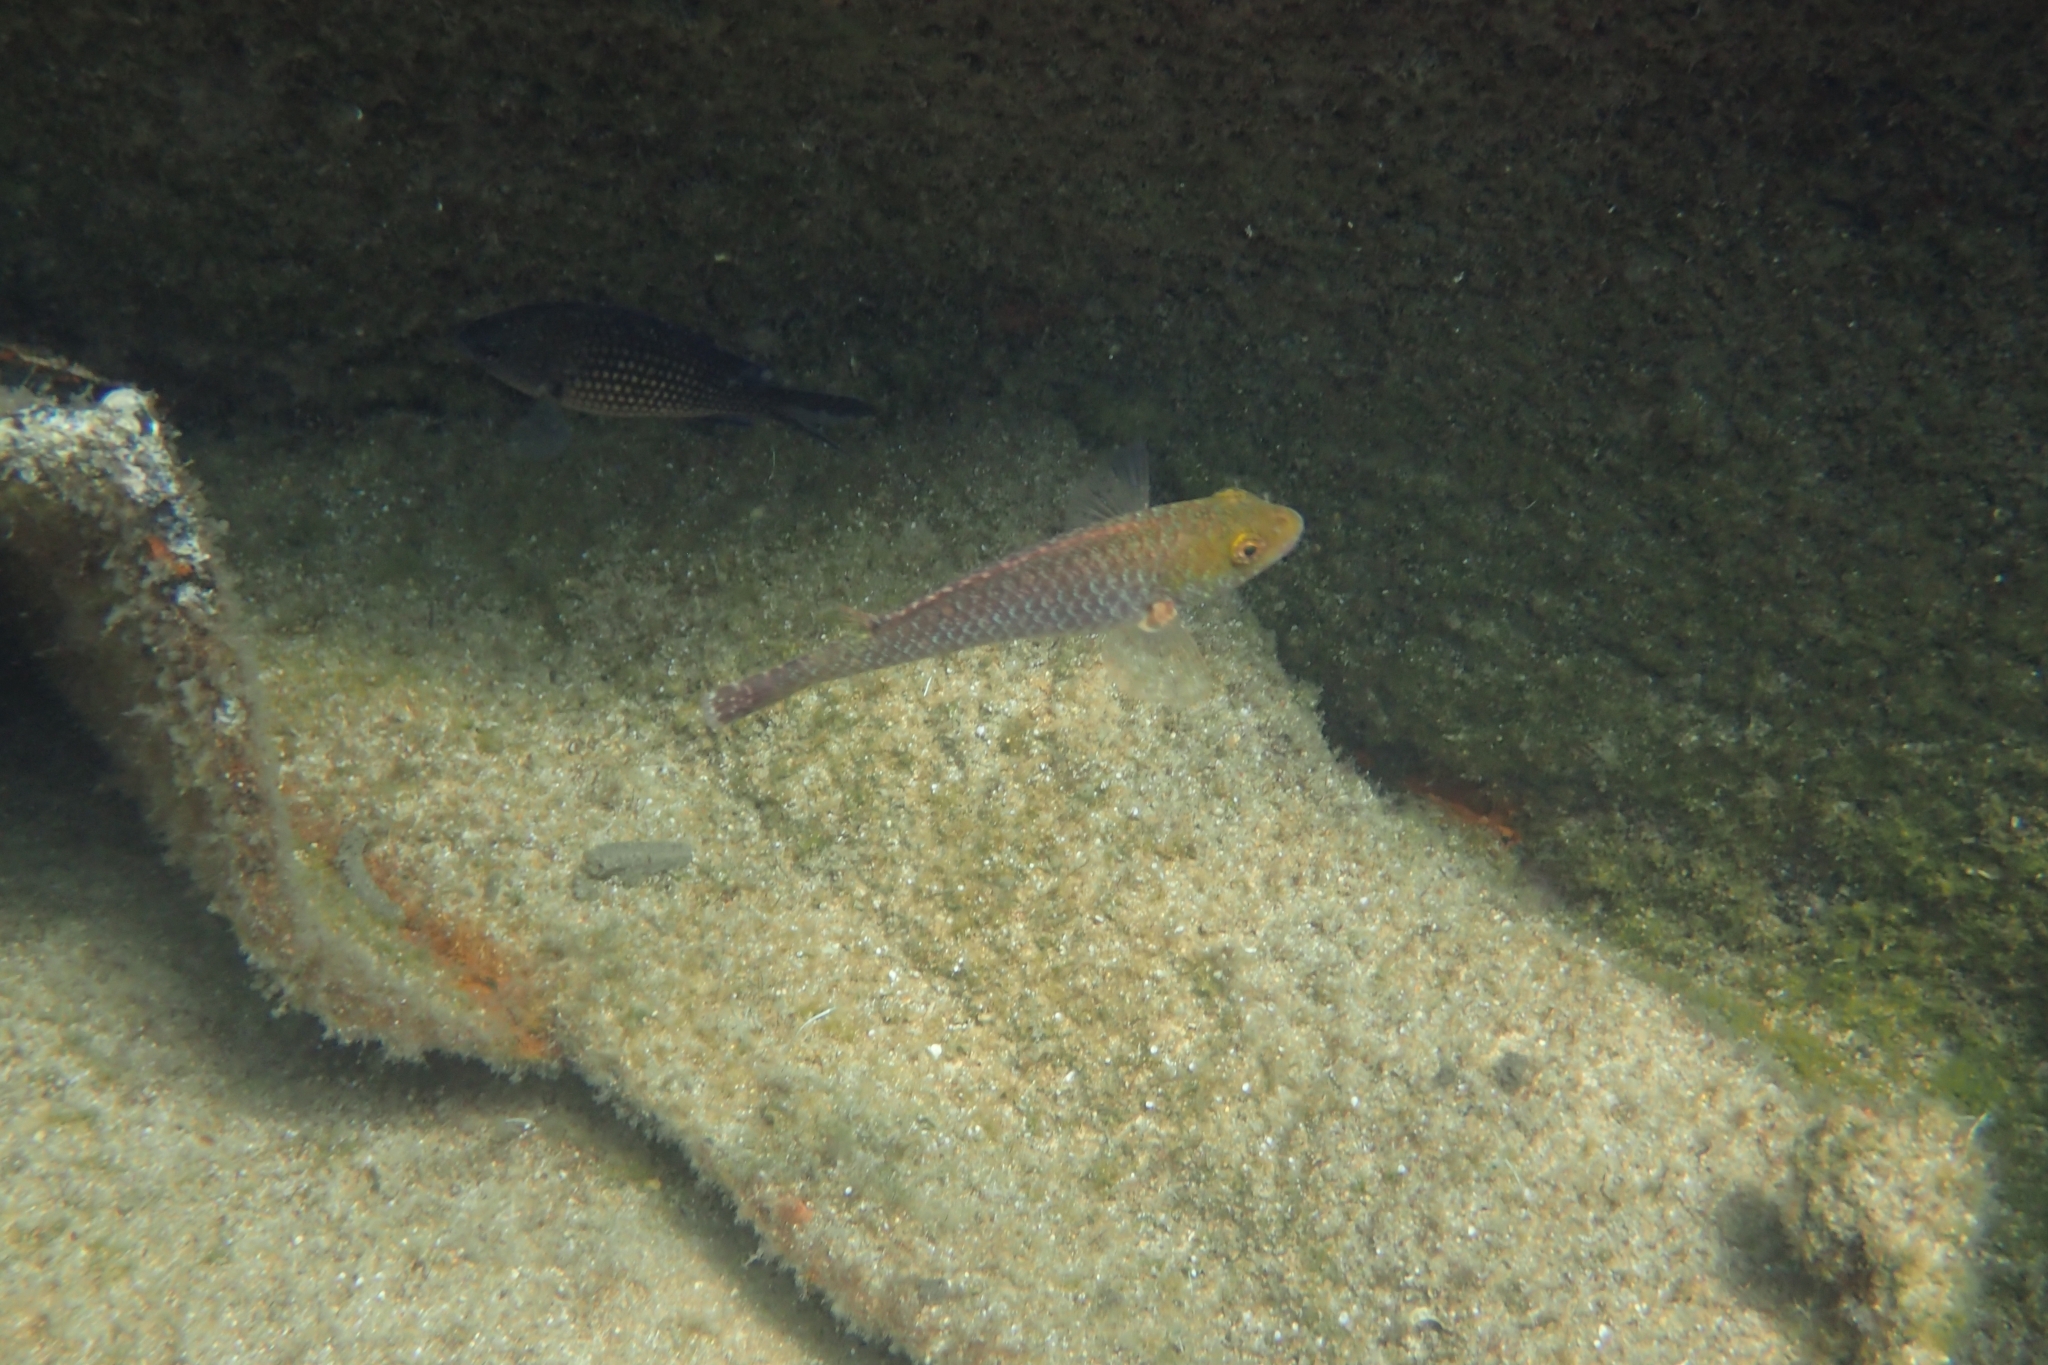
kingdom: Animalia
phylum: Chordata
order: Perciformes
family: Scaridae
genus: Sparisoma
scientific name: Sparisoma cretense
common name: Parrotfish
